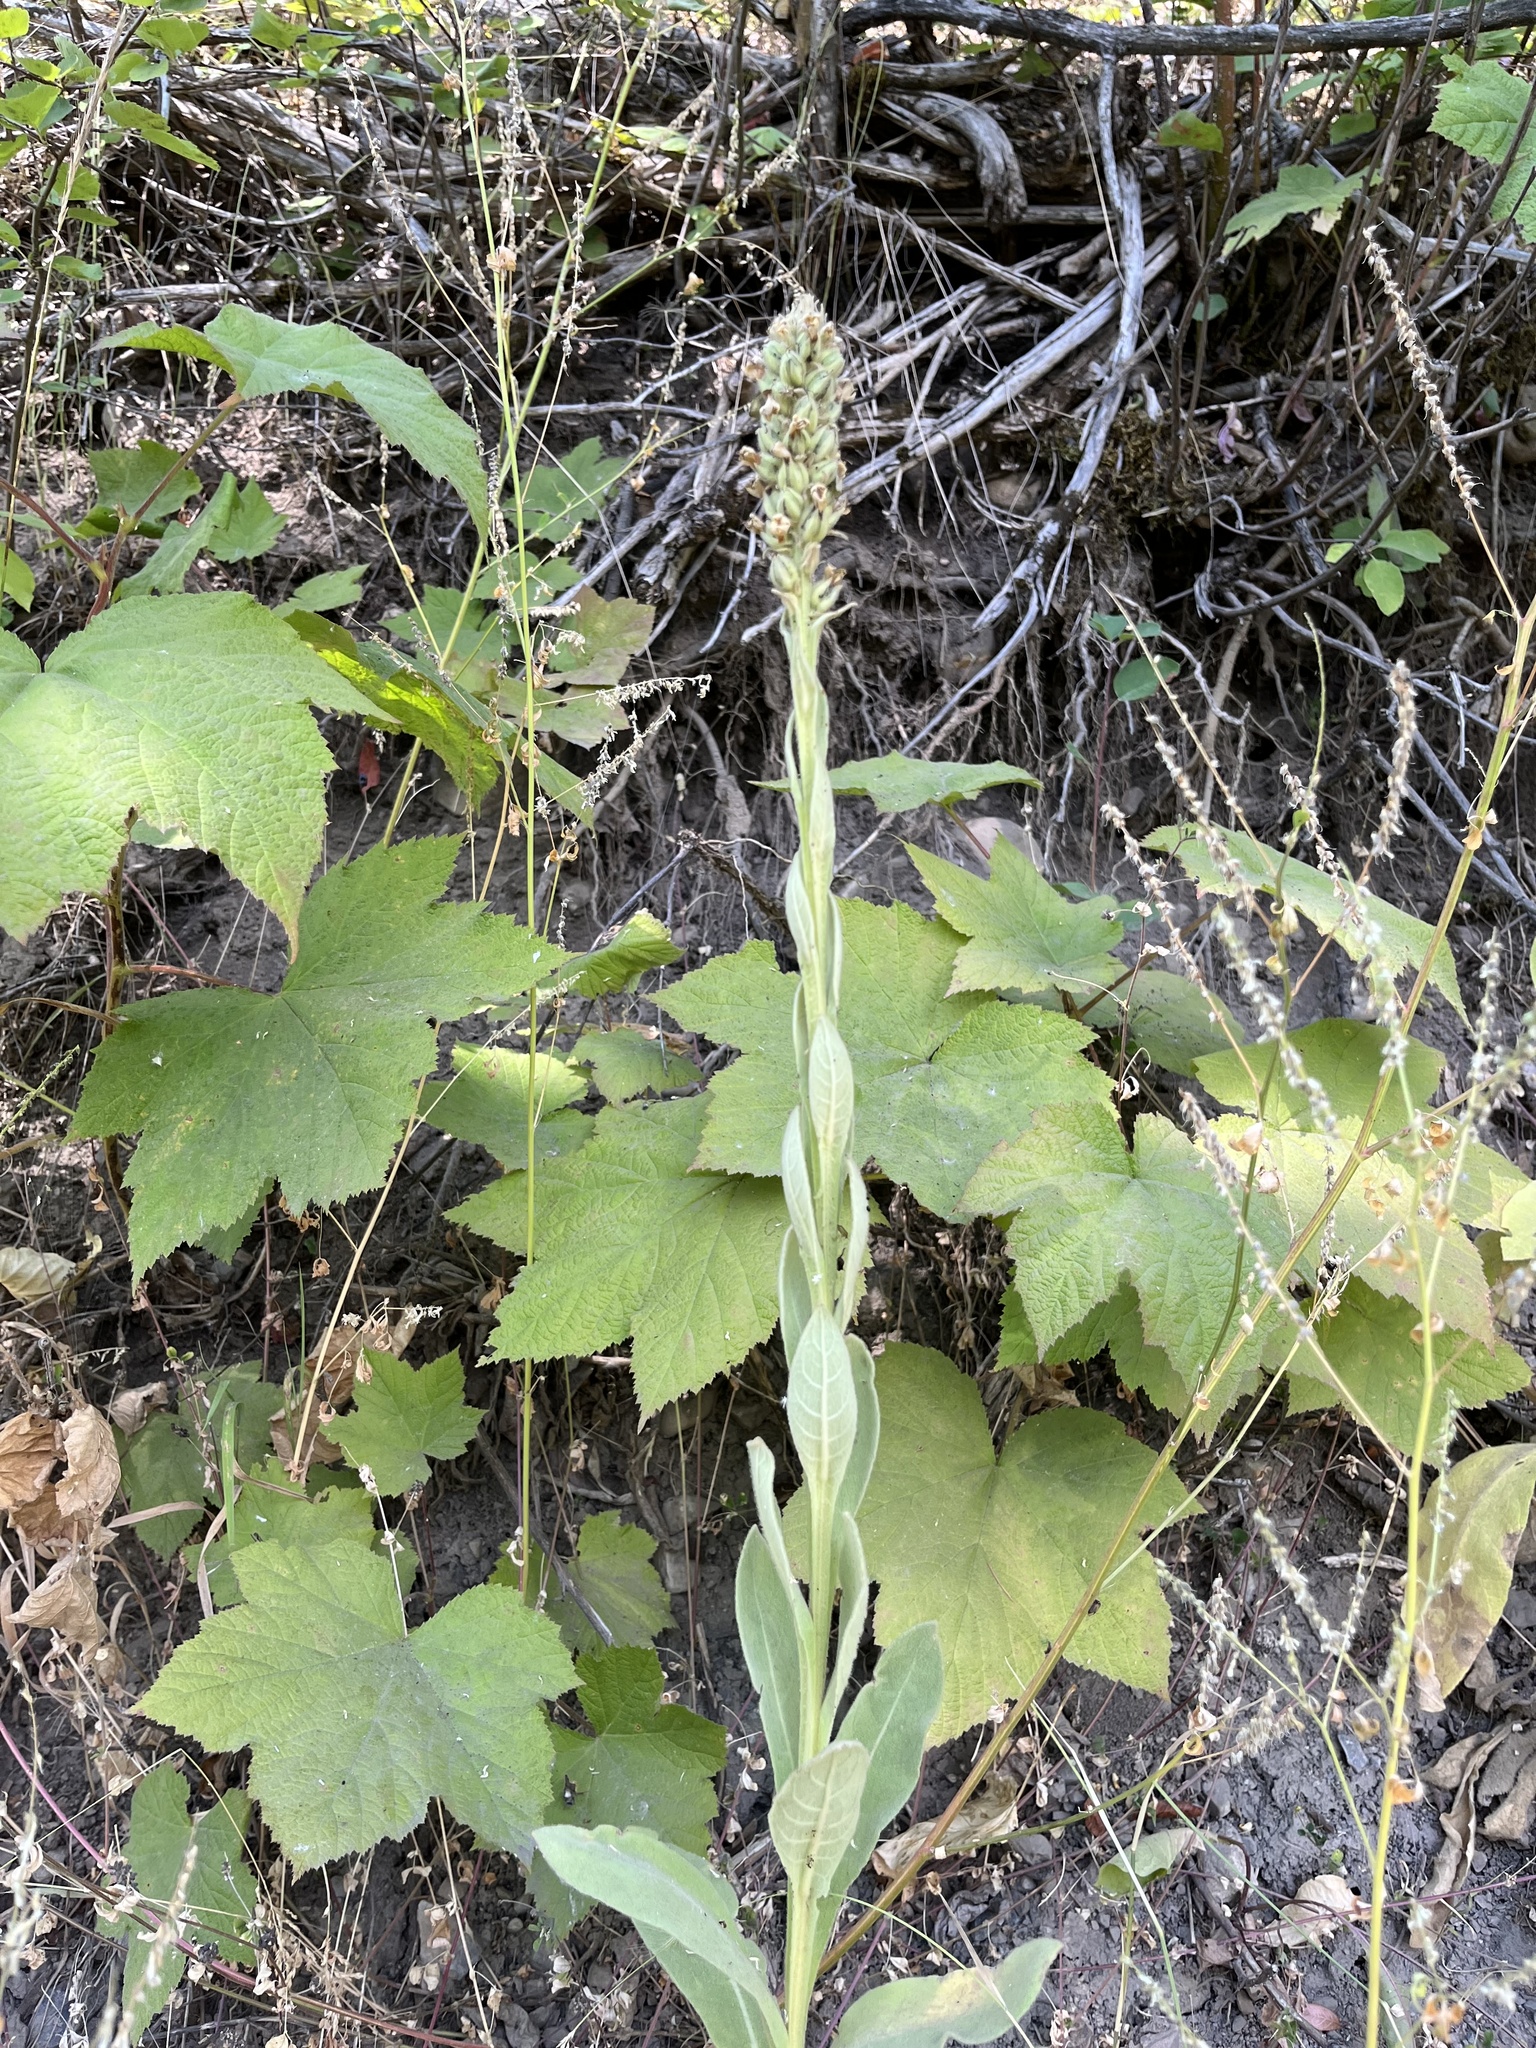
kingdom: Plantae
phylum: Tracheophyta
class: Magnoliopsida
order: Lamiales
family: Scrophulariaceae
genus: Verbascum
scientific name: Verbascum thapsus
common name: Common mullein
